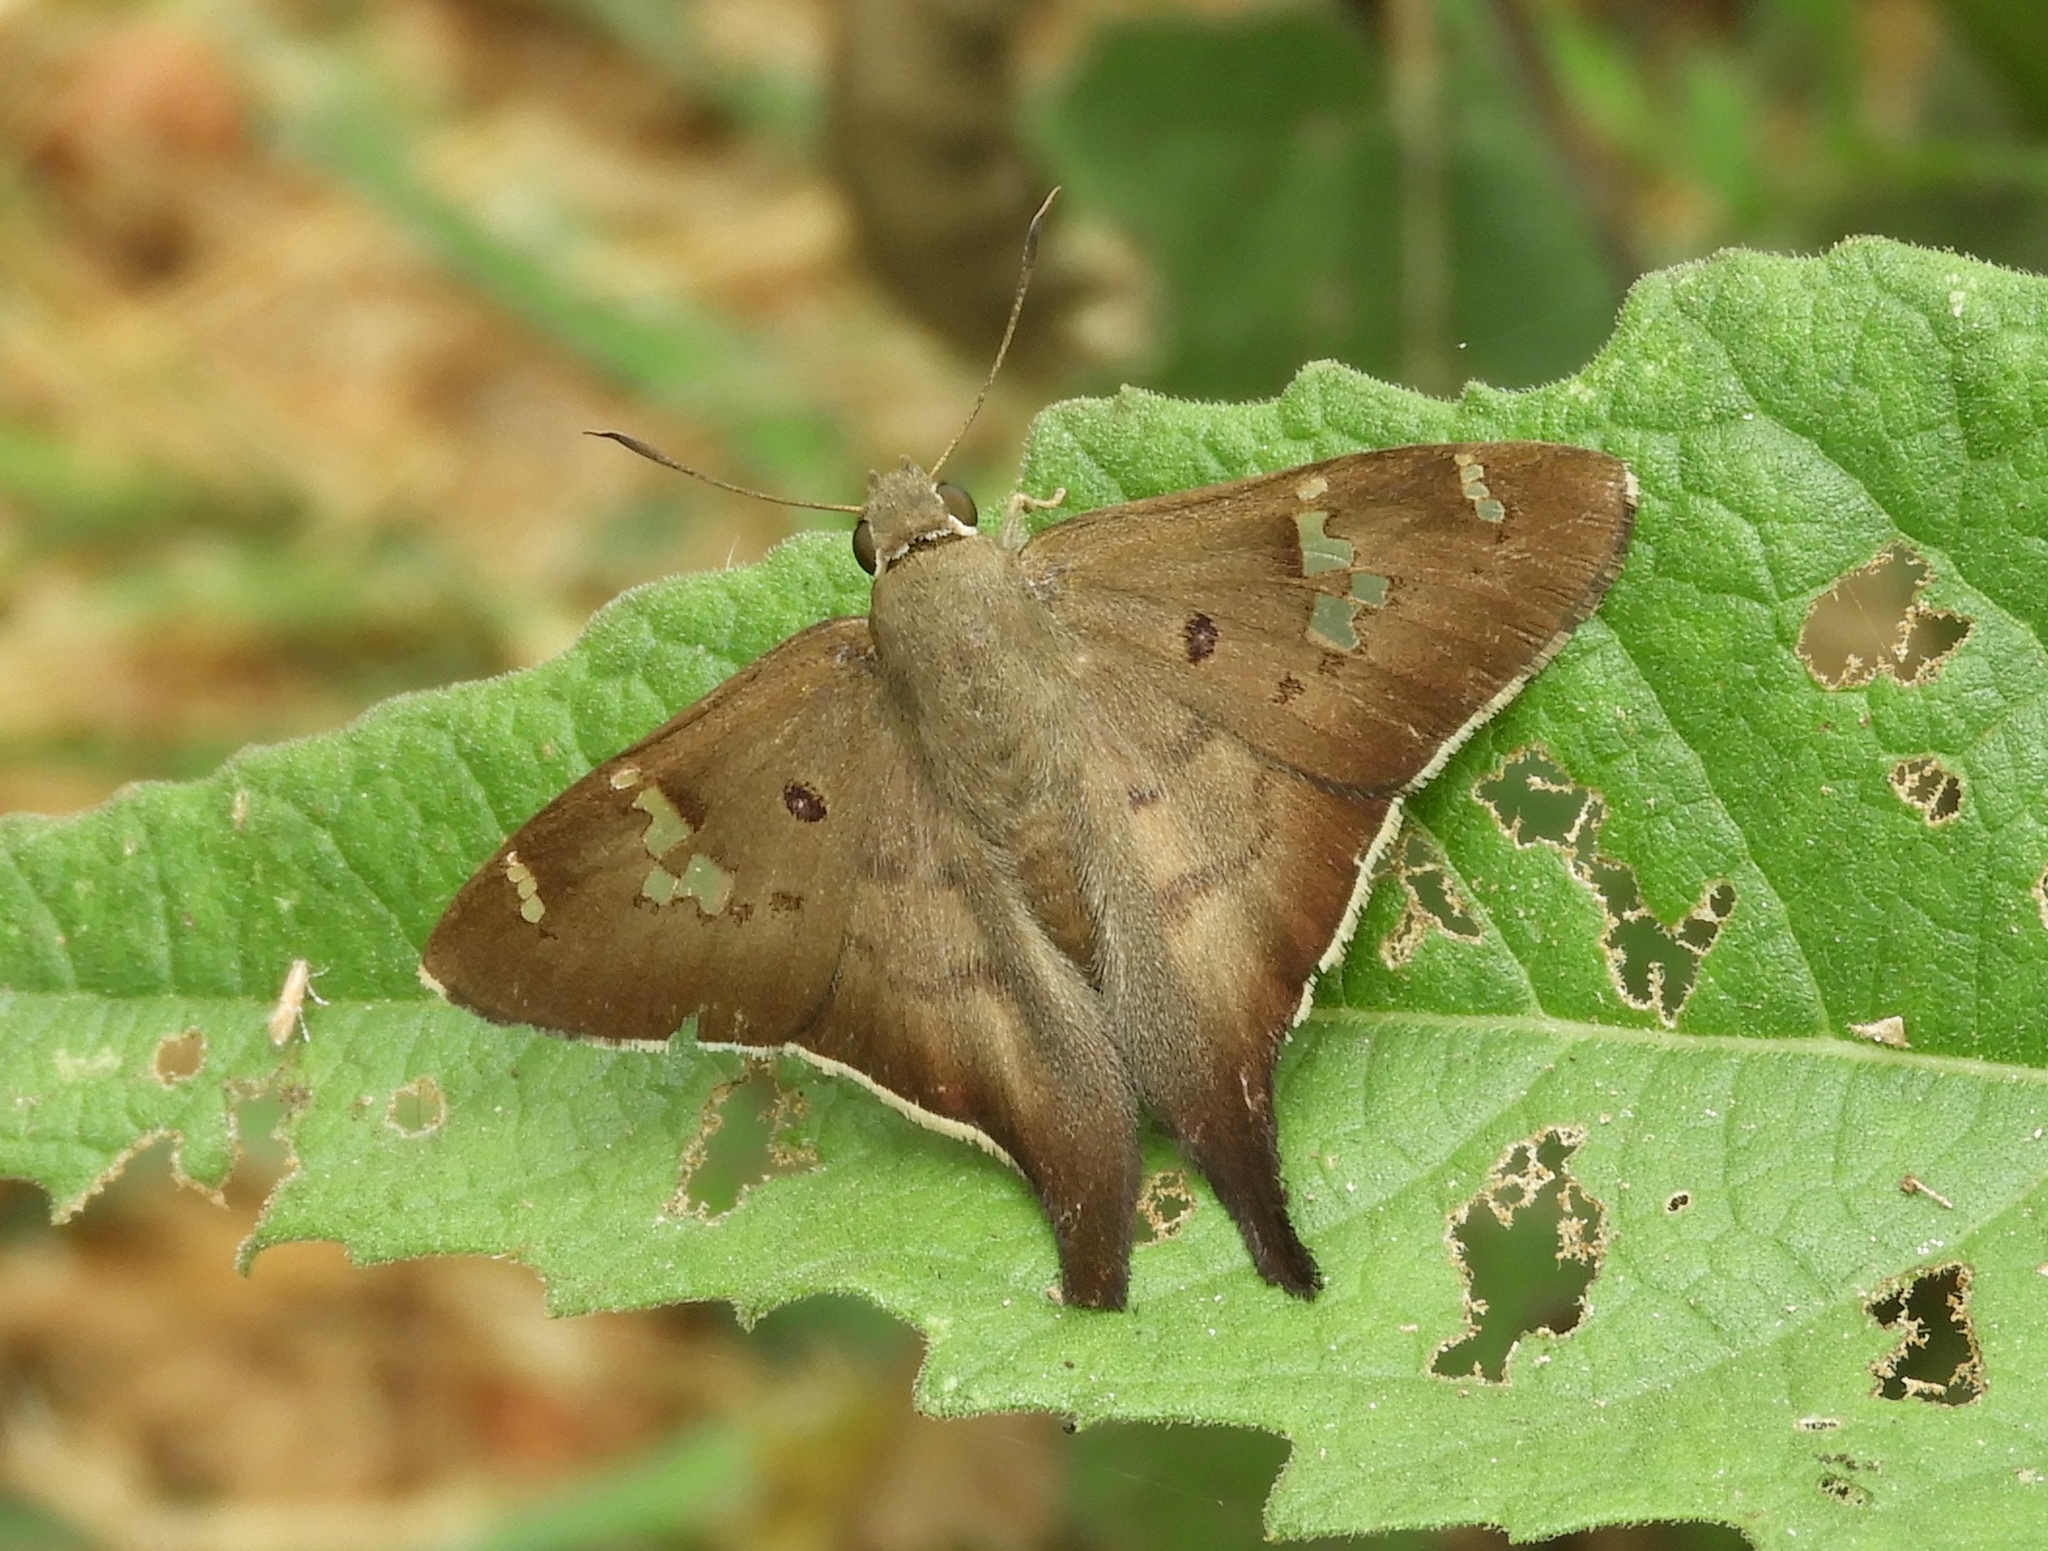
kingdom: Animalia
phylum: Arthropoda
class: Insecta
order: Lepidoptera
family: Hesperiidae
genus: Ectomis
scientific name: Ectomis
